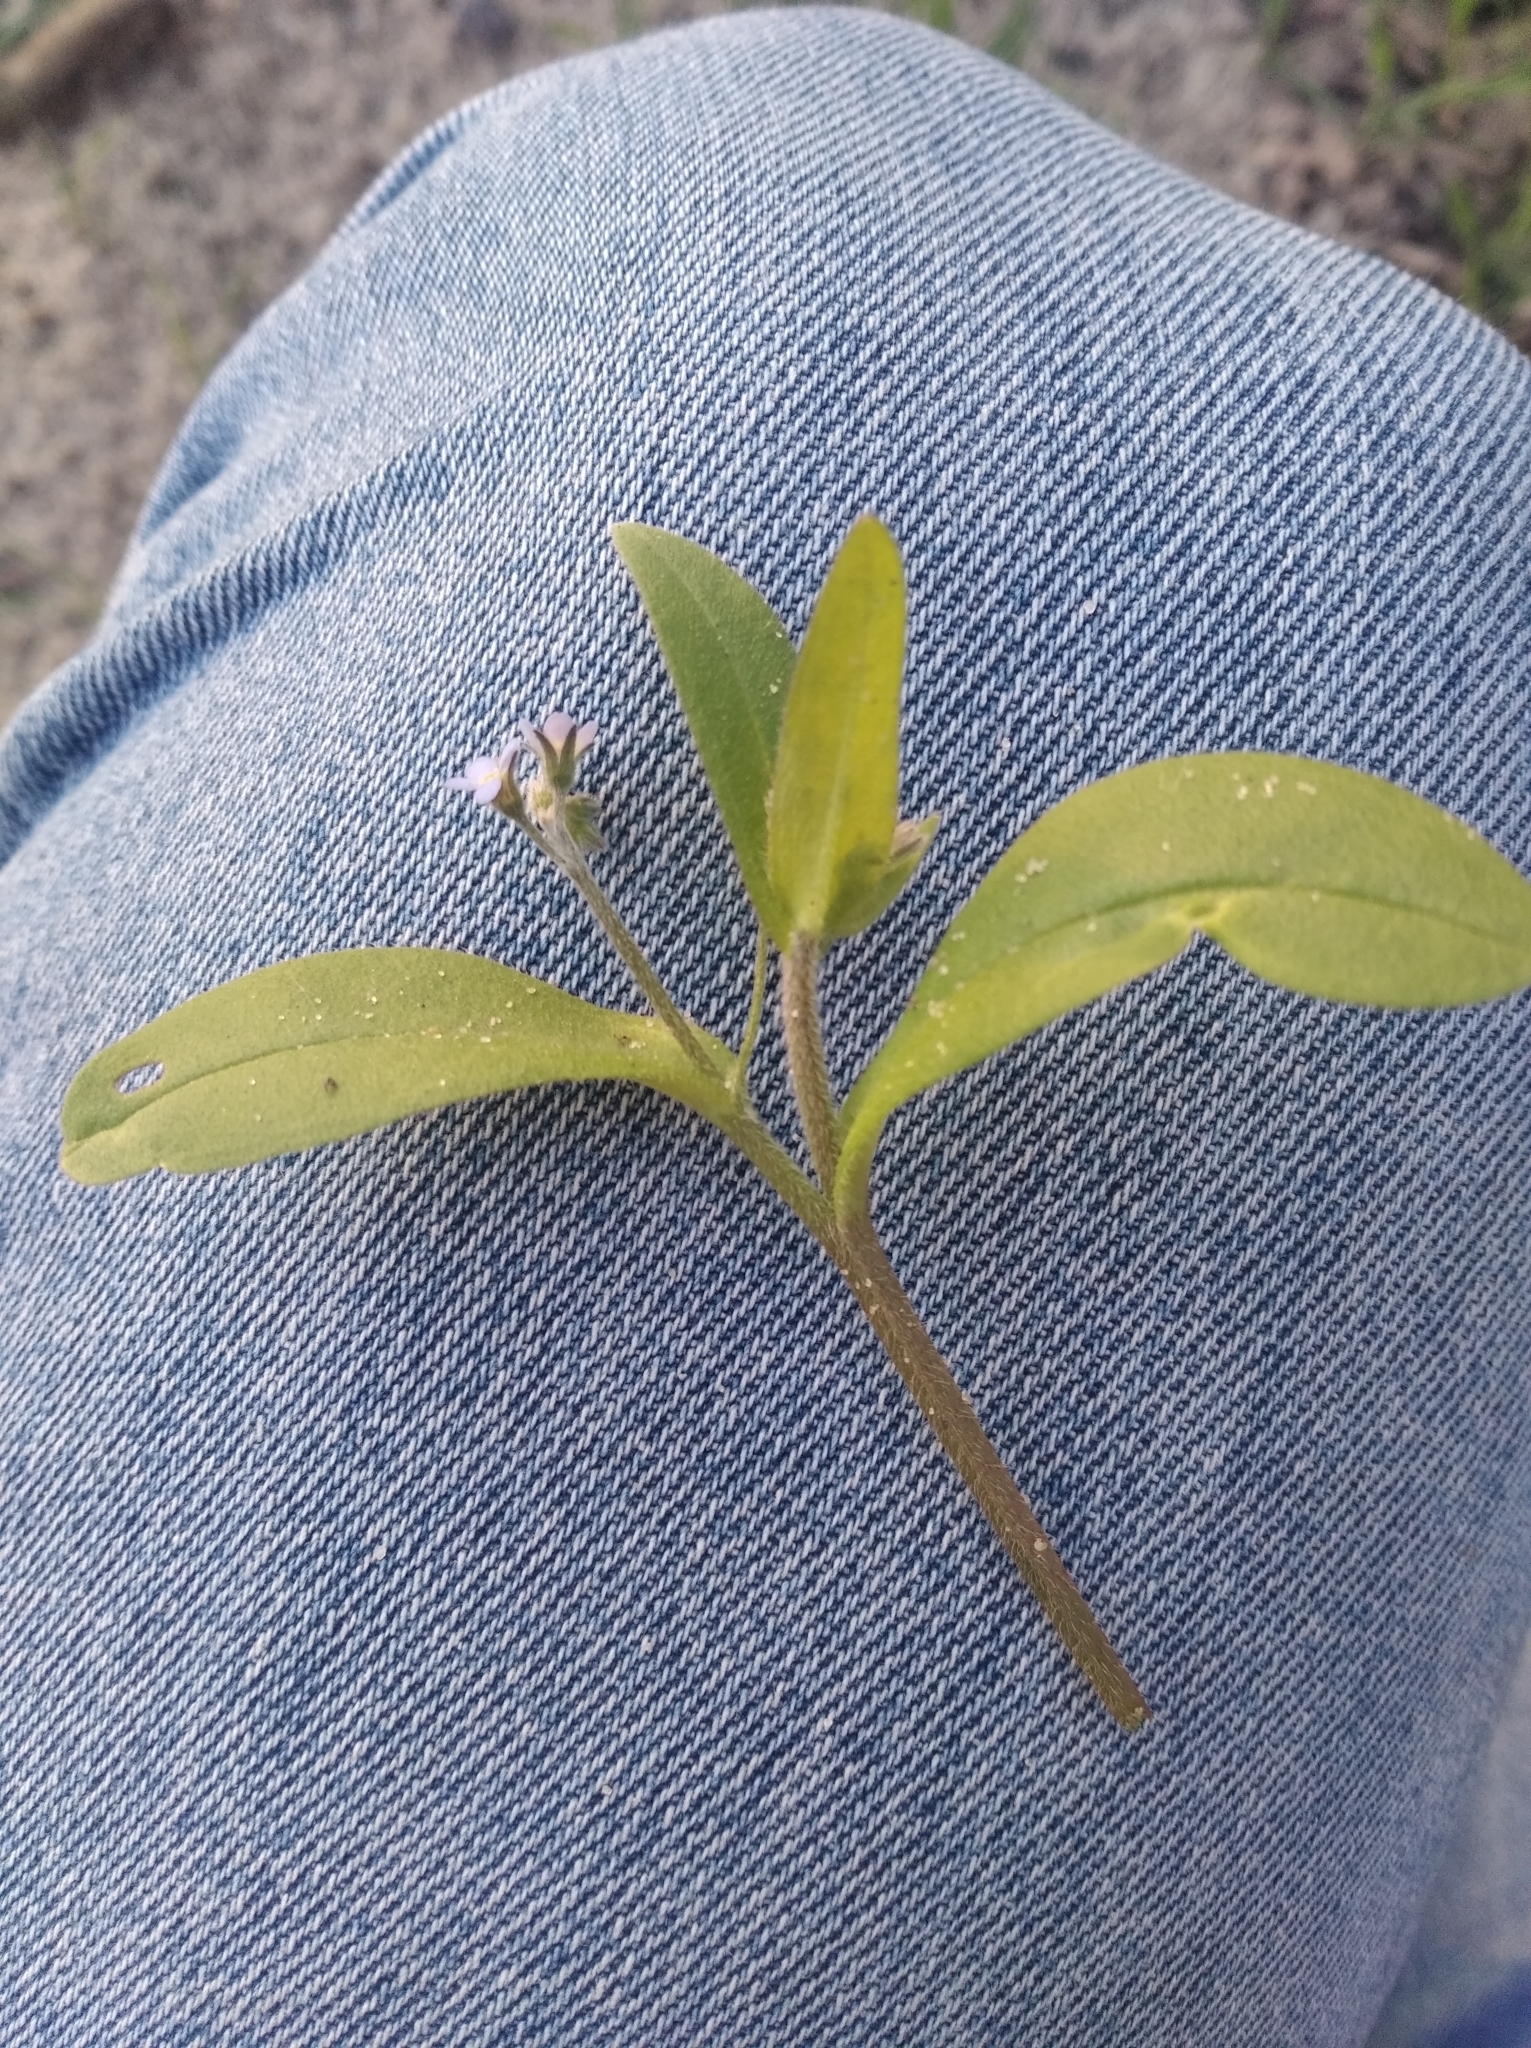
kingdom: Plantae
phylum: Tracheophyta
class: Magnoliopsida
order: Boraginales
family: Boraginaceae
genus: Myosotis
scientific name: Myosotis sparsiflora
